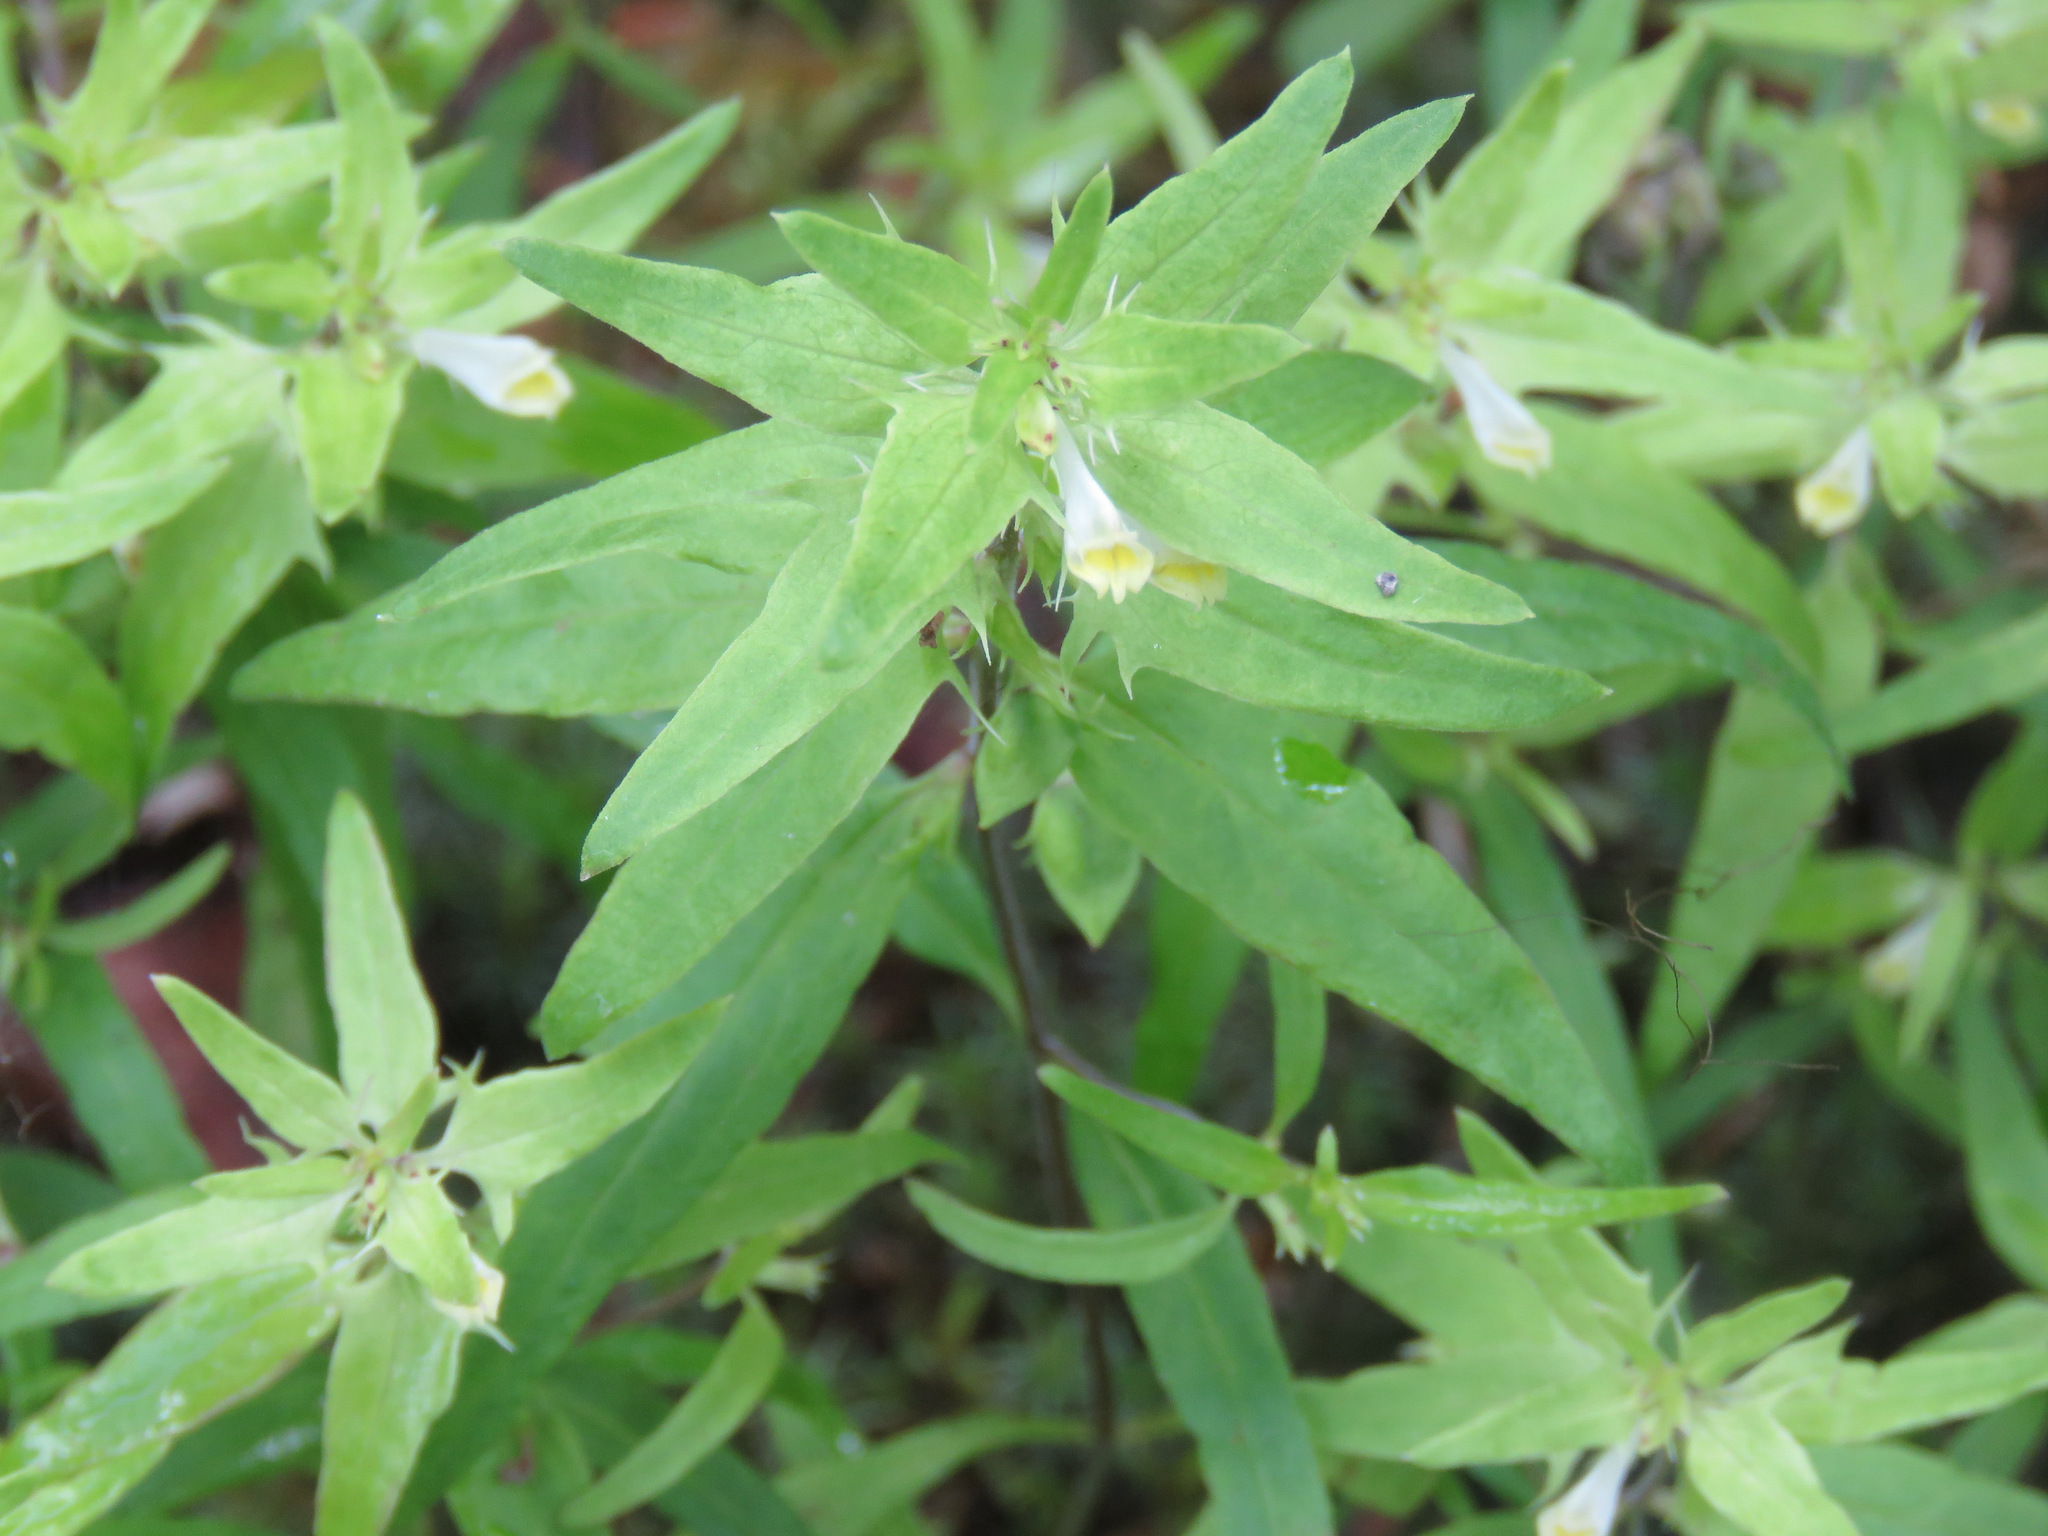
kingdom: Plantae
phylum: Tracheophyta
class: Magnoliopsida
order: Lamiales
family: Orobanchaceae
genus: Melampyrum
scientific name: Melampyrum lineare
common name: American cow-wheat
